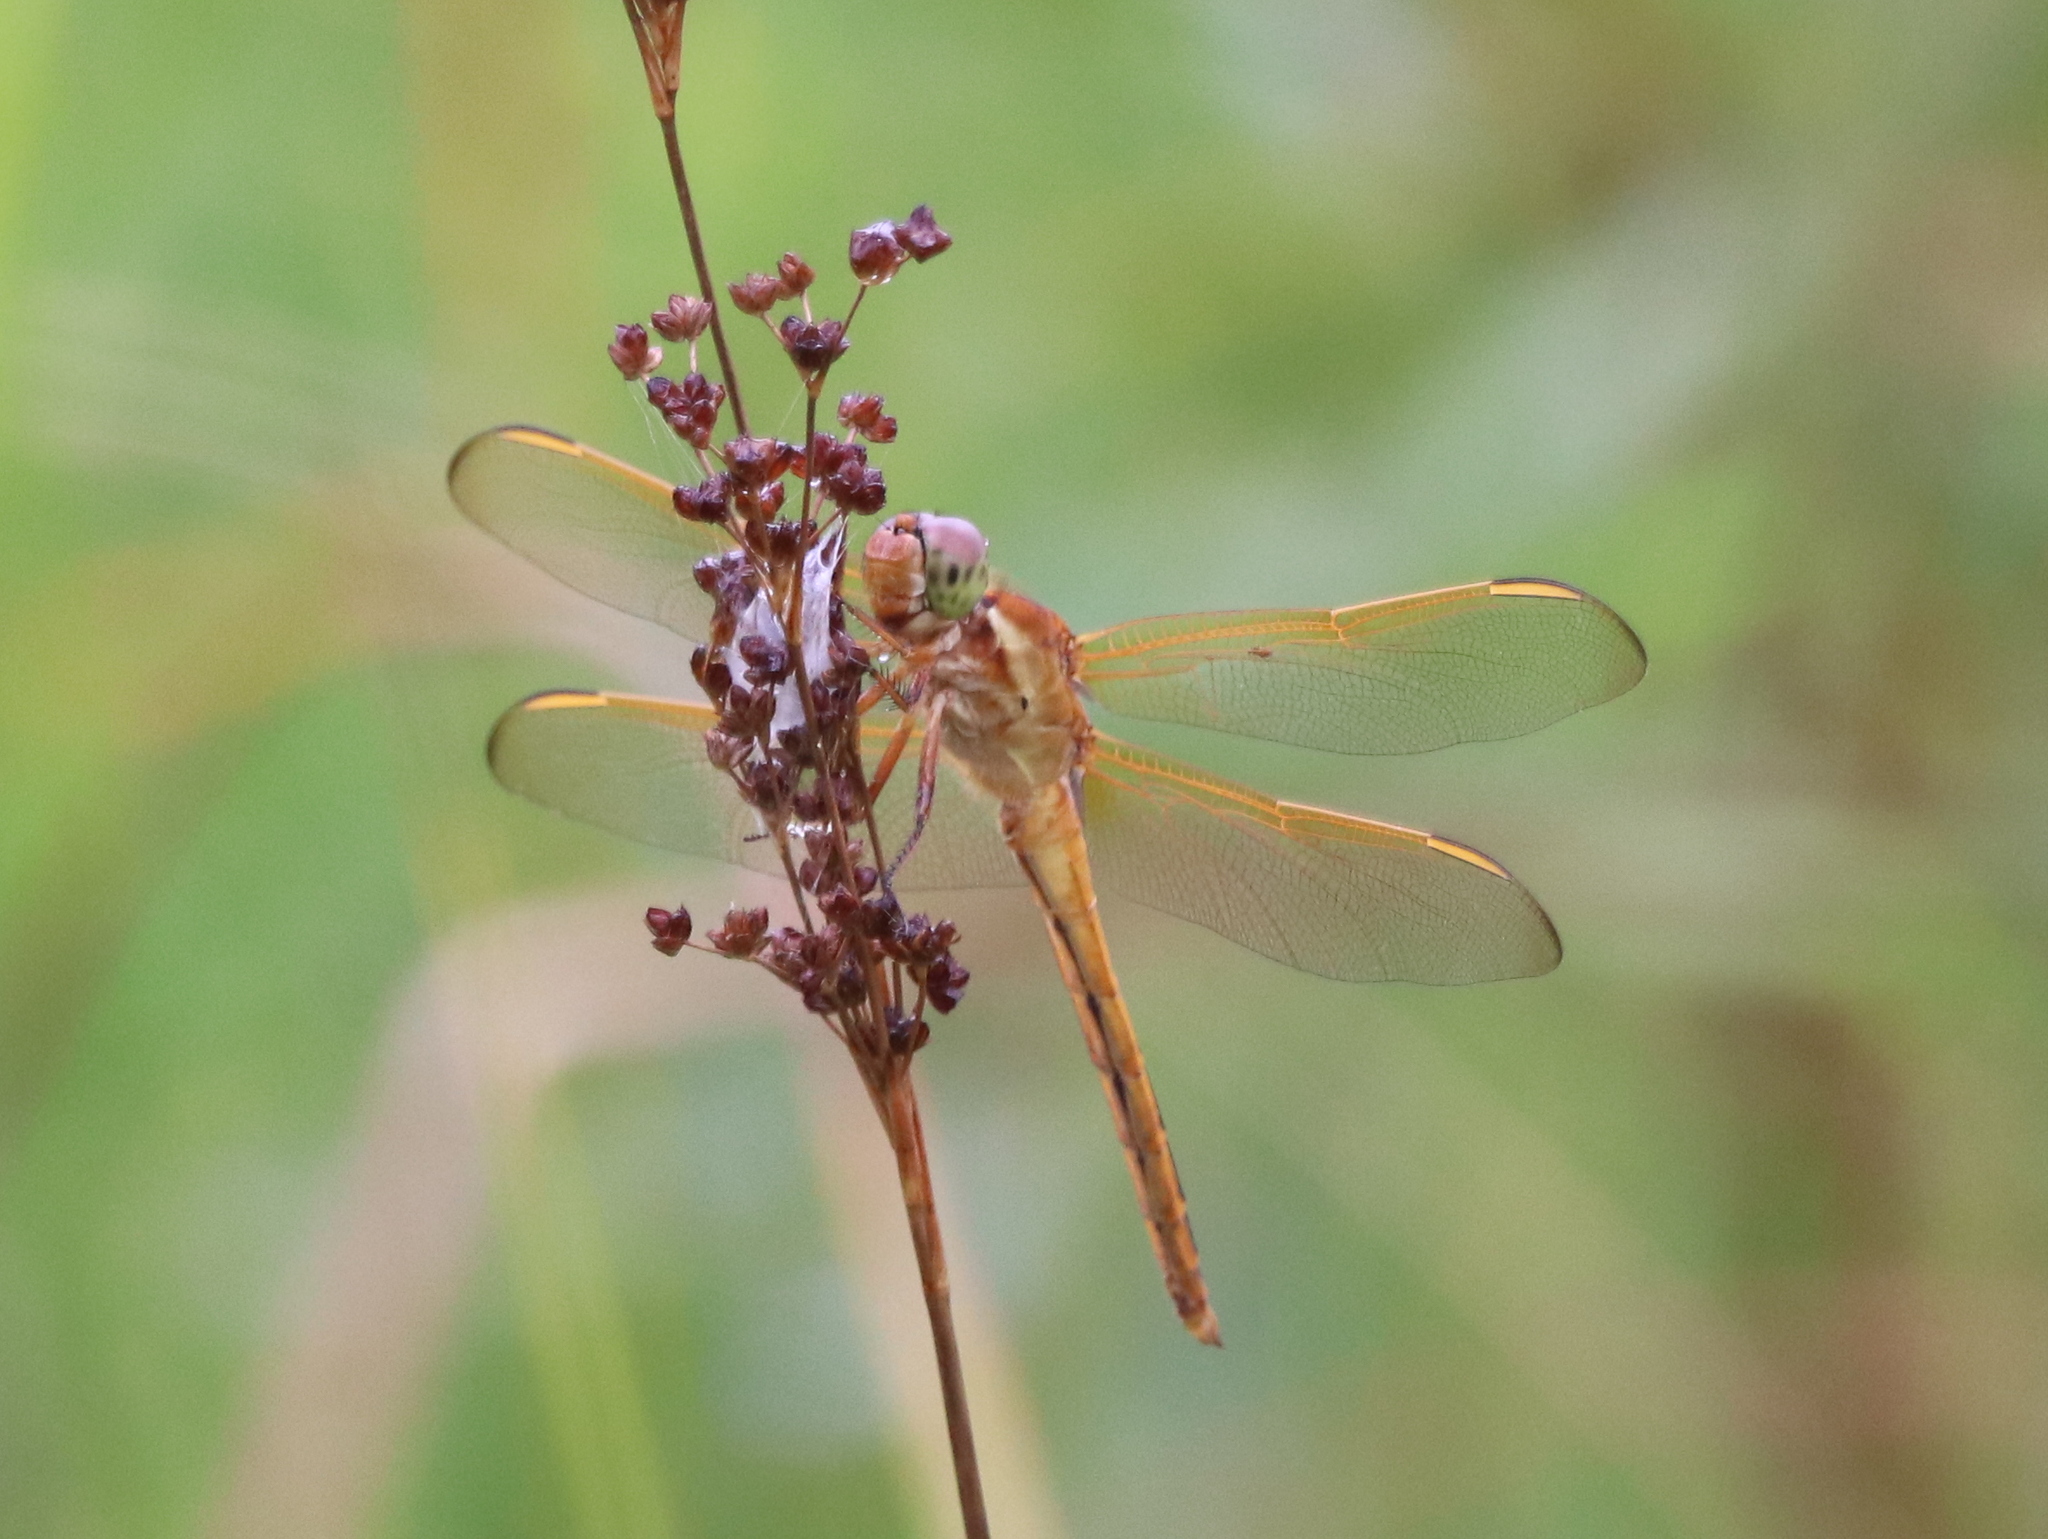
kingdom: Animalia
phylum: Arthropoda
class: Insecta
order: Odonata
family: Libellulidae
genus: Libellula
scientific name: Libellula needhami
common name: Needham's skimmer
